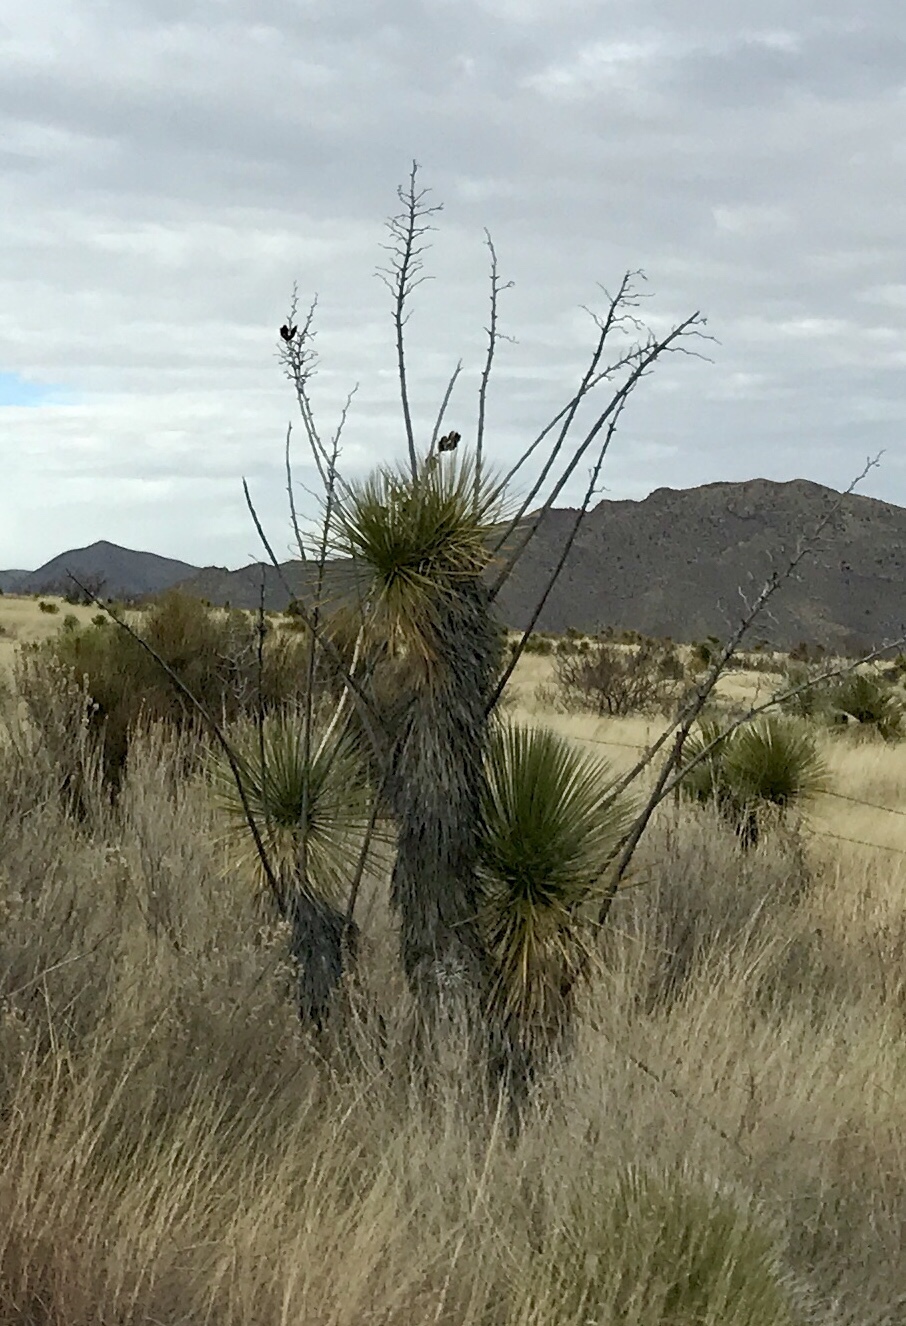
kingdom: Plantae
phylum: Tracheophyta
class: Liliopsida
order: Asparagales
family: Asparagaceae
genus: Yucca
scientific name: Yucca elata
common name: Palmella
